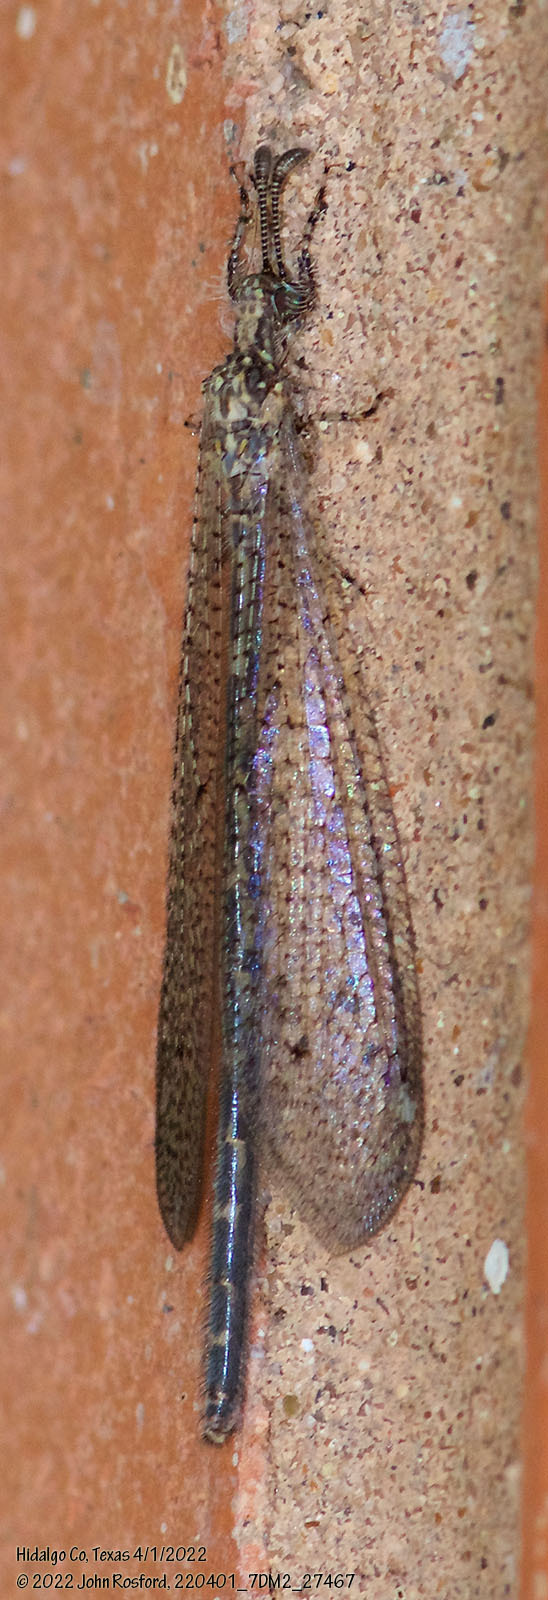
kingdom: Animalia
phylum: Arthropoda
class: Insecta
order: Neuroptera
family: Myrmeleontidae
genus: Peruveleon
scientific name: Peruveleon dorsalis
